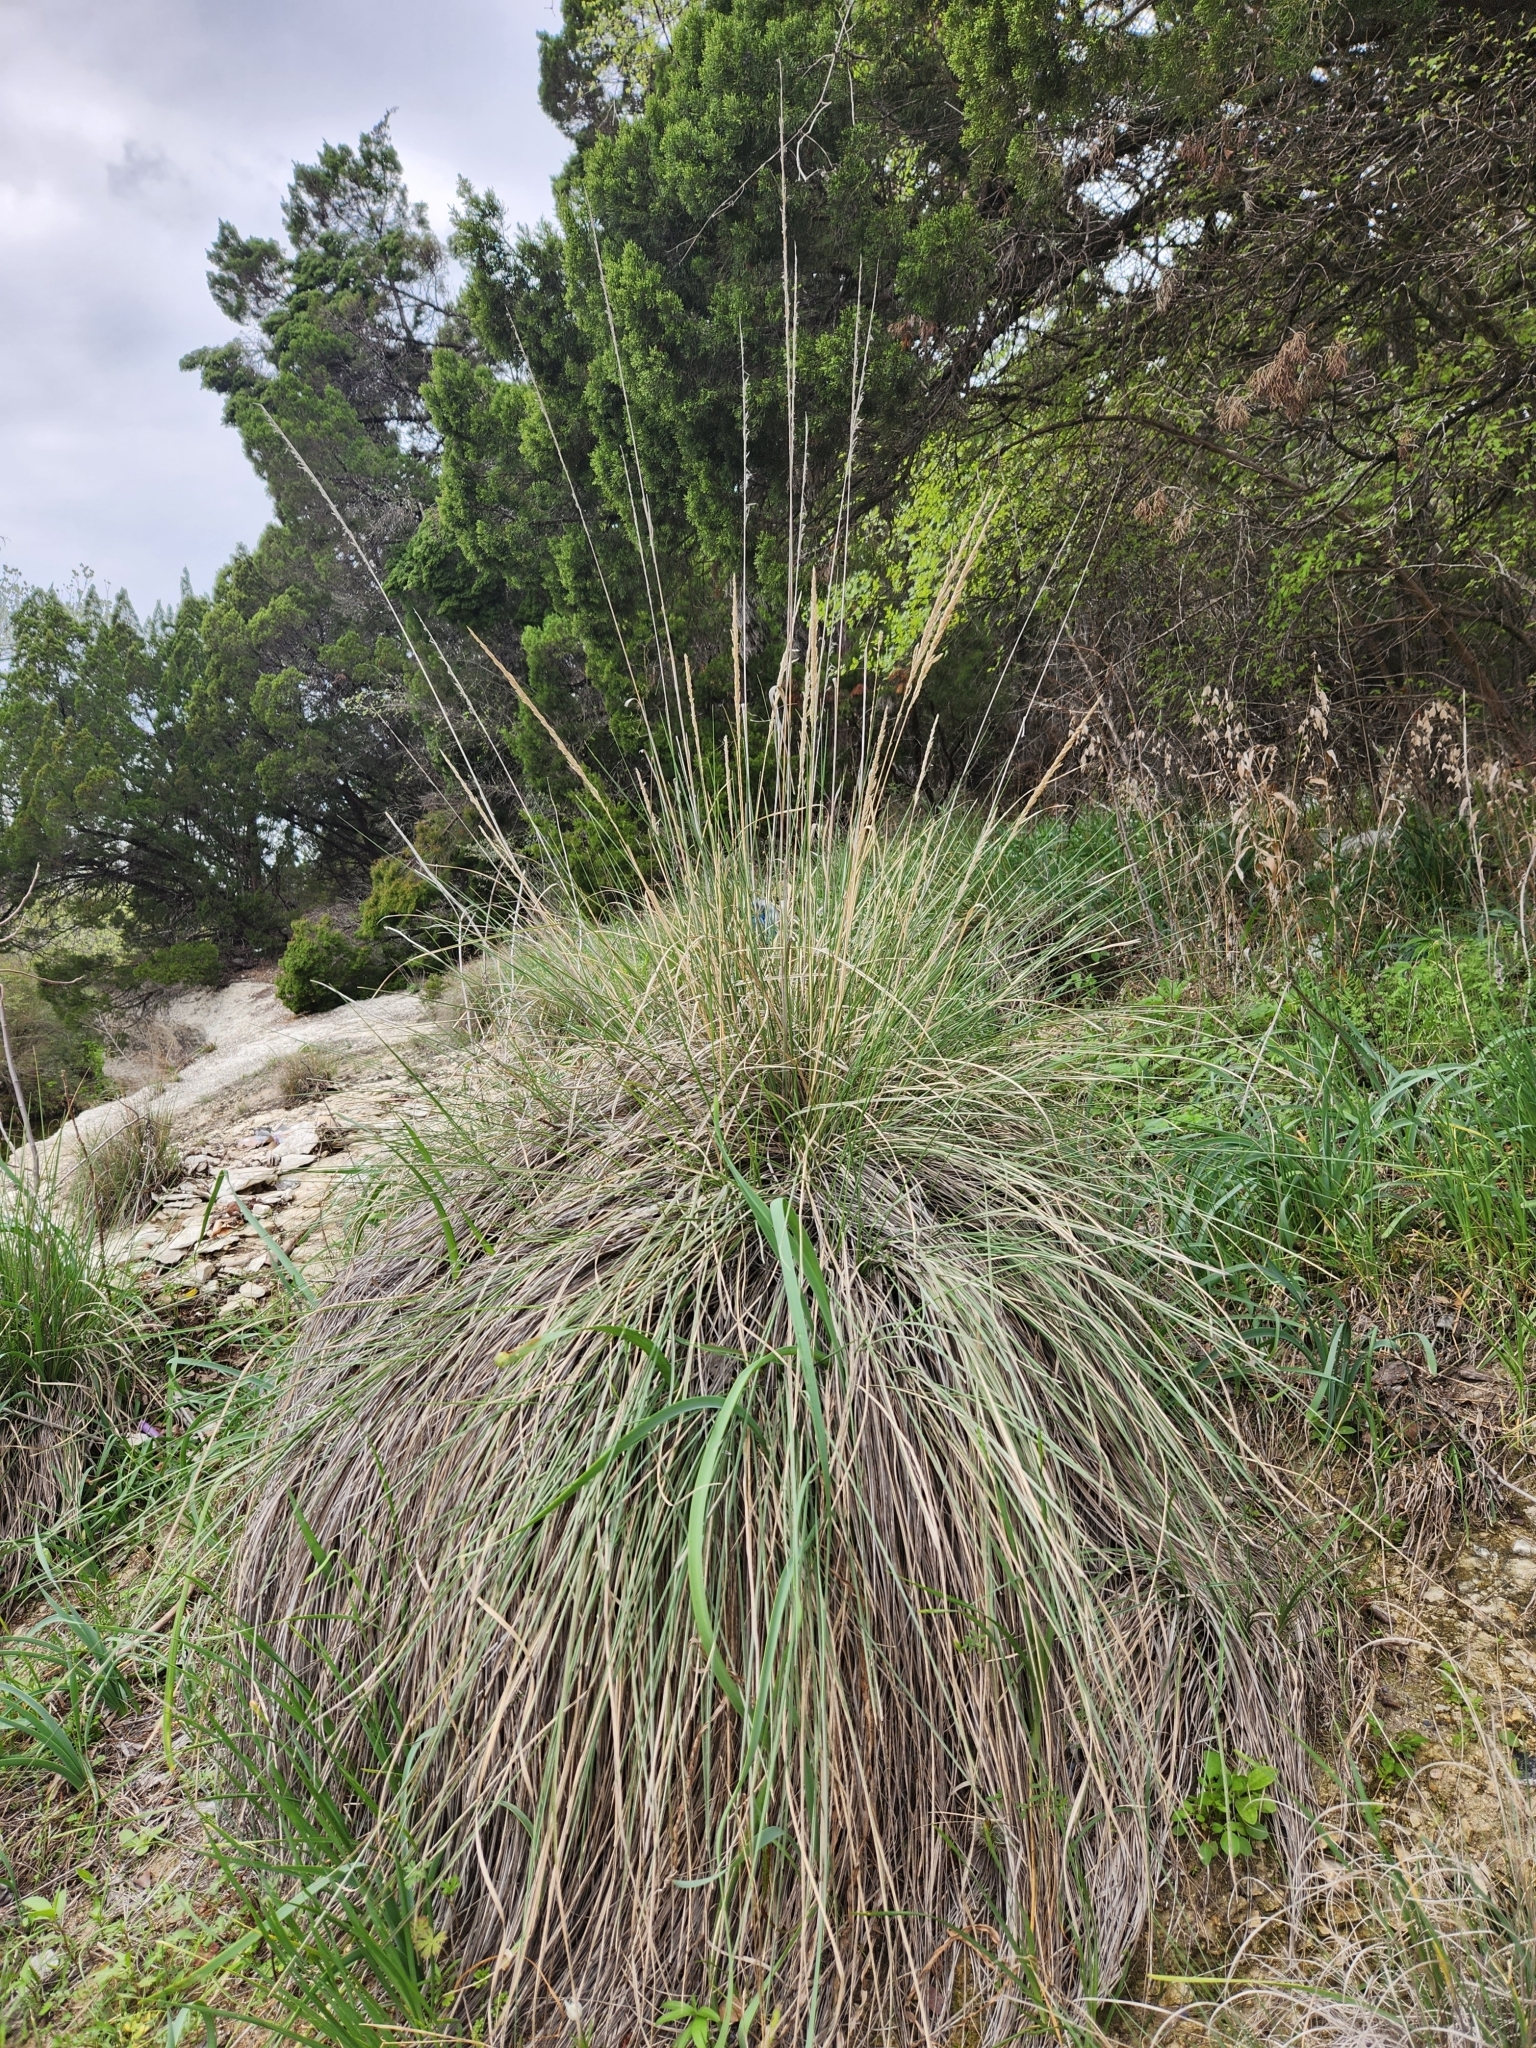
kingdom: Plantae
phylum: Tracheophyta
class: Liliopsida
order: Poales
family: Poaceae
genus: Muhlenbergia
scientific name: Muhlenbergia lindheimeri
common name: Lindheimer's muhly
